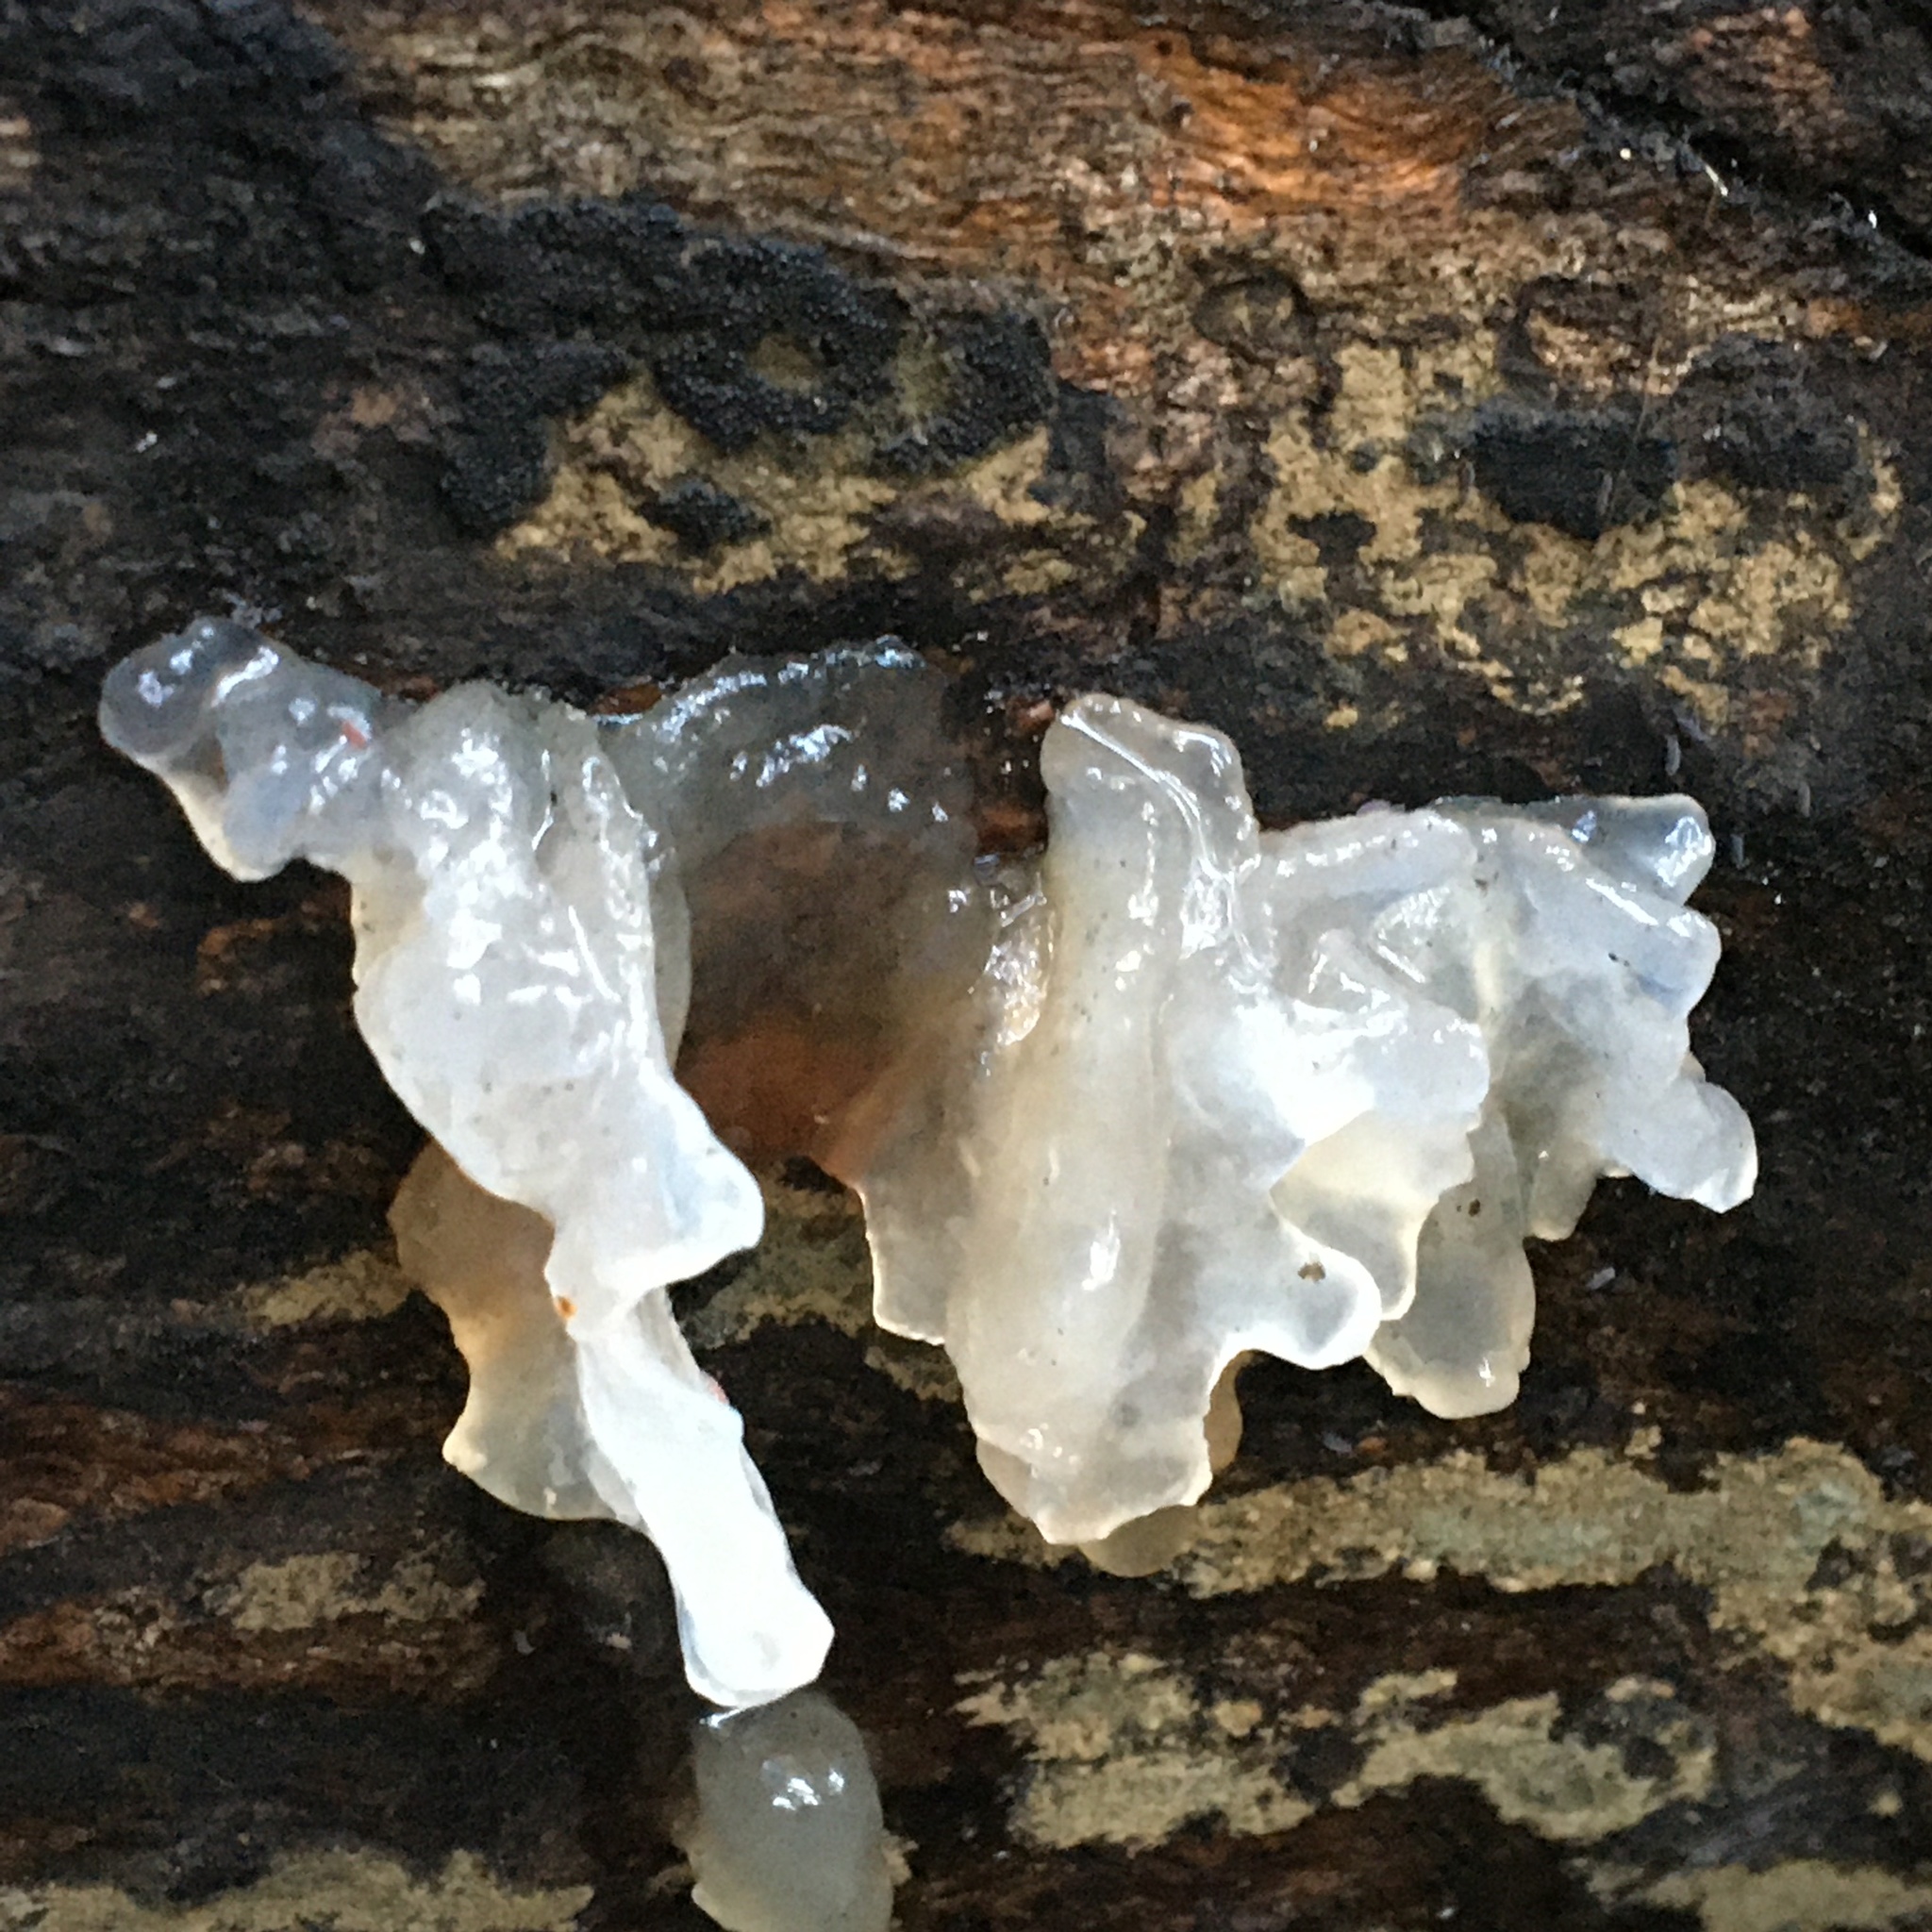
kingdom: Fungi
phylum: Basidiomycota
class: Tremellomycetes
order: Tremellales
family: Tremellaceae
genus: Tremella
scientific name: Tremella fuciformis
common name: Snow fungus
